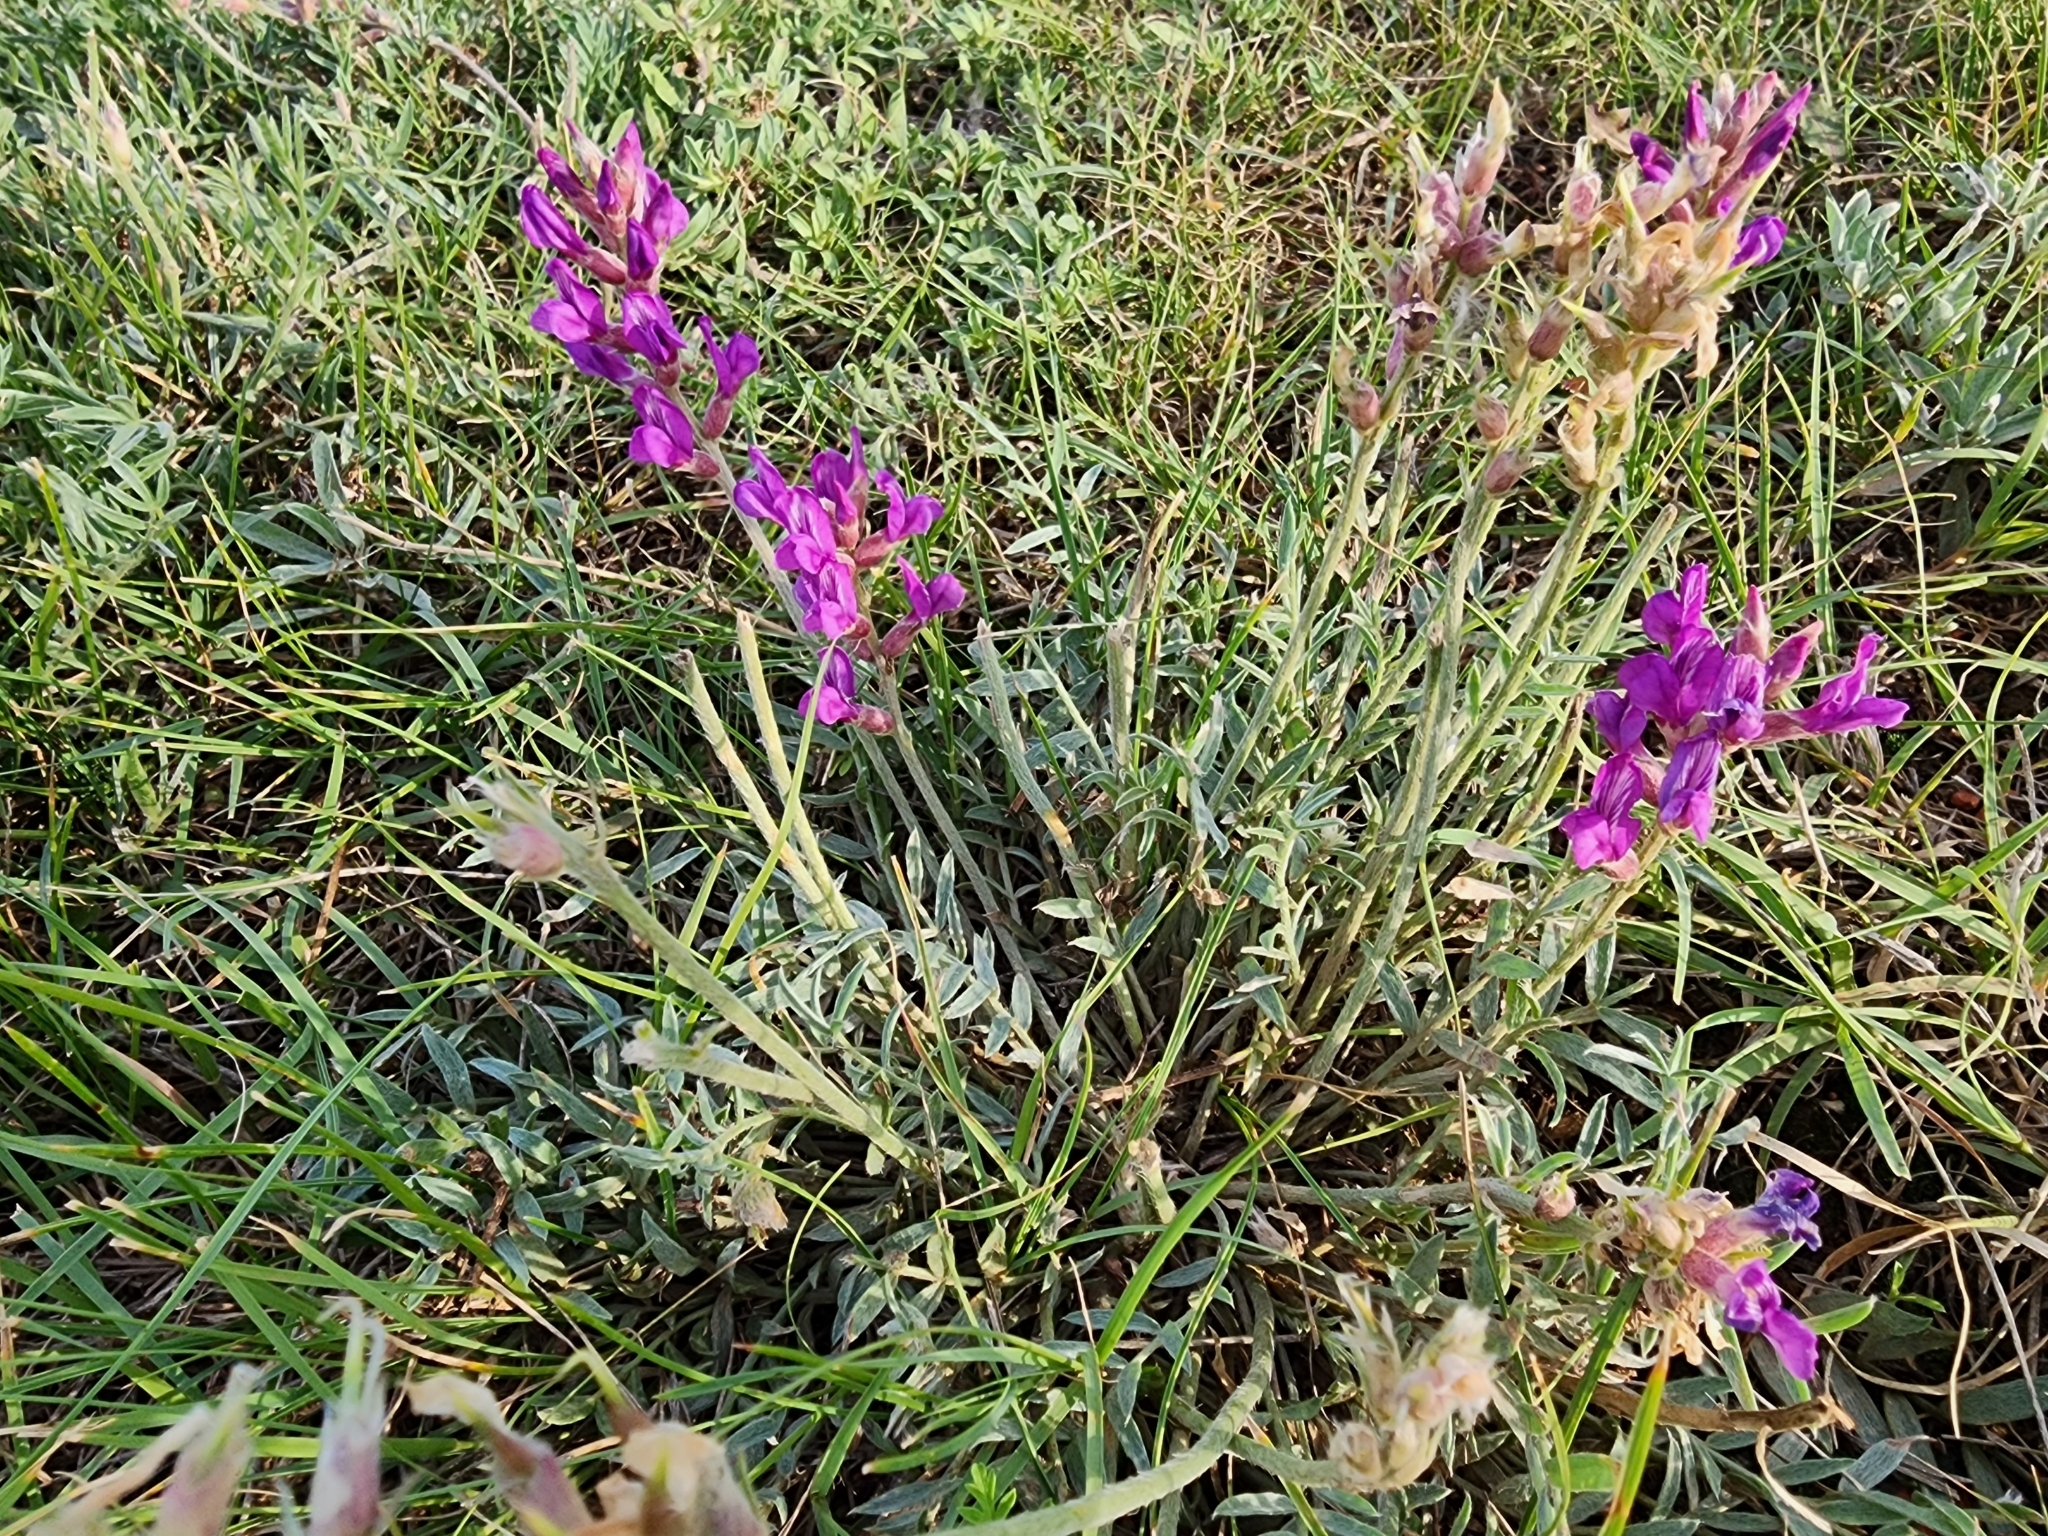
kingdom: Plantae
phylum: Tracheophyta
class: Magnoliopsida
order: Fabales
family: Fabaceae
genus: Oxytropis
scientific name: Oxytropis lambertii
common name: Purple locoweed
